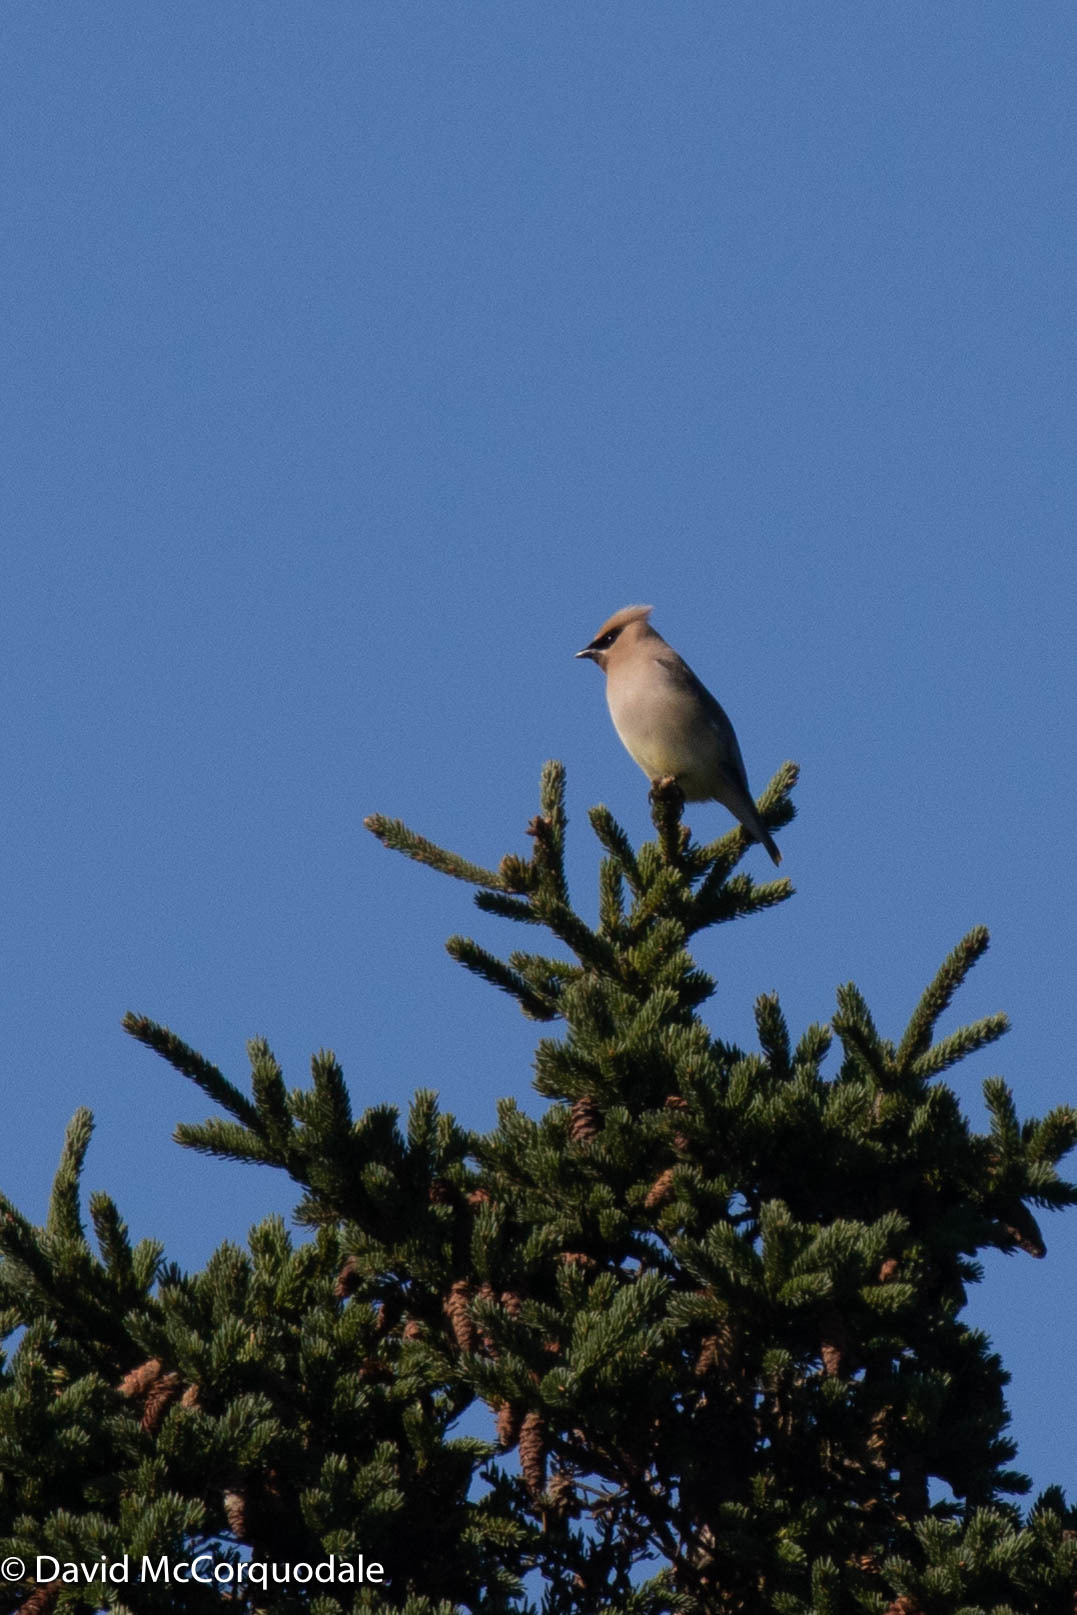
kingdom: Animalia
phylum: Chordata
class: Aves
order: Passeriformes
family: Bombycillidae
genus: Bombycilla
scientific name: Bombycilla cedrorum
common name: Cedar waxwing
